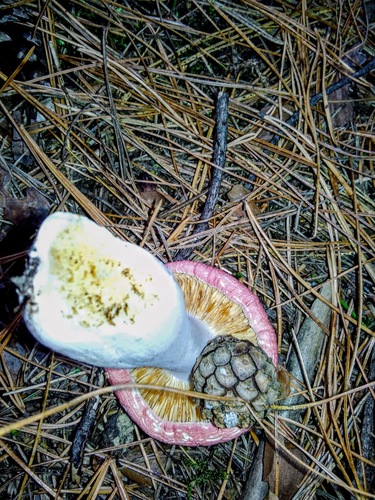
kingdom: Fungi
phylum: Basidiomycota
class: Agaricomycetes
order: Russulales
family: Russulaceae
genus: Russula
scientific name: Russula
